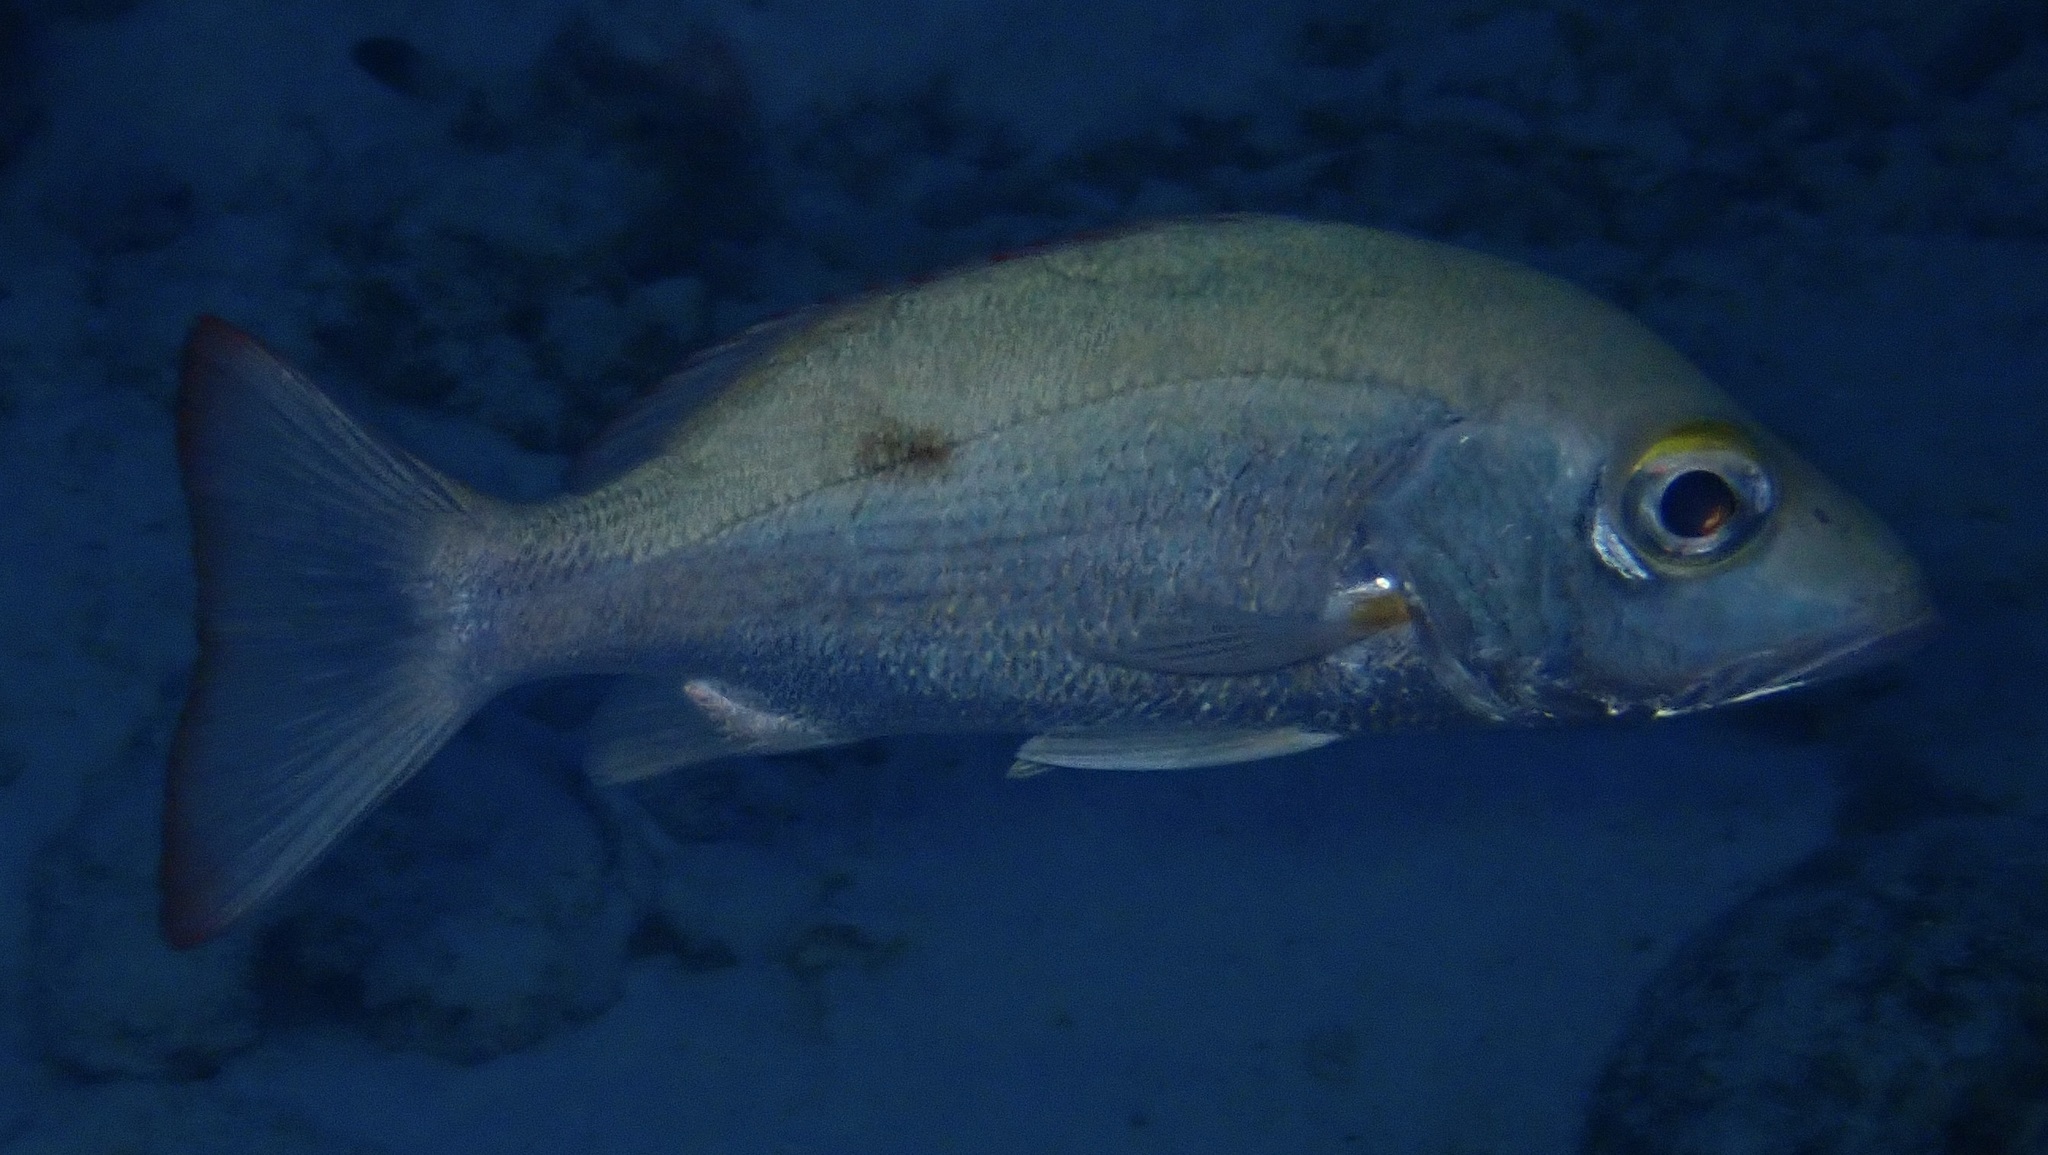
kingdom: Animalia
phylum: Chordata
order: Perciformes
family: Lutjanidae
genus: Lutjanus
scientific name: Lutjanus mahogoni
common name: Spot snapper
